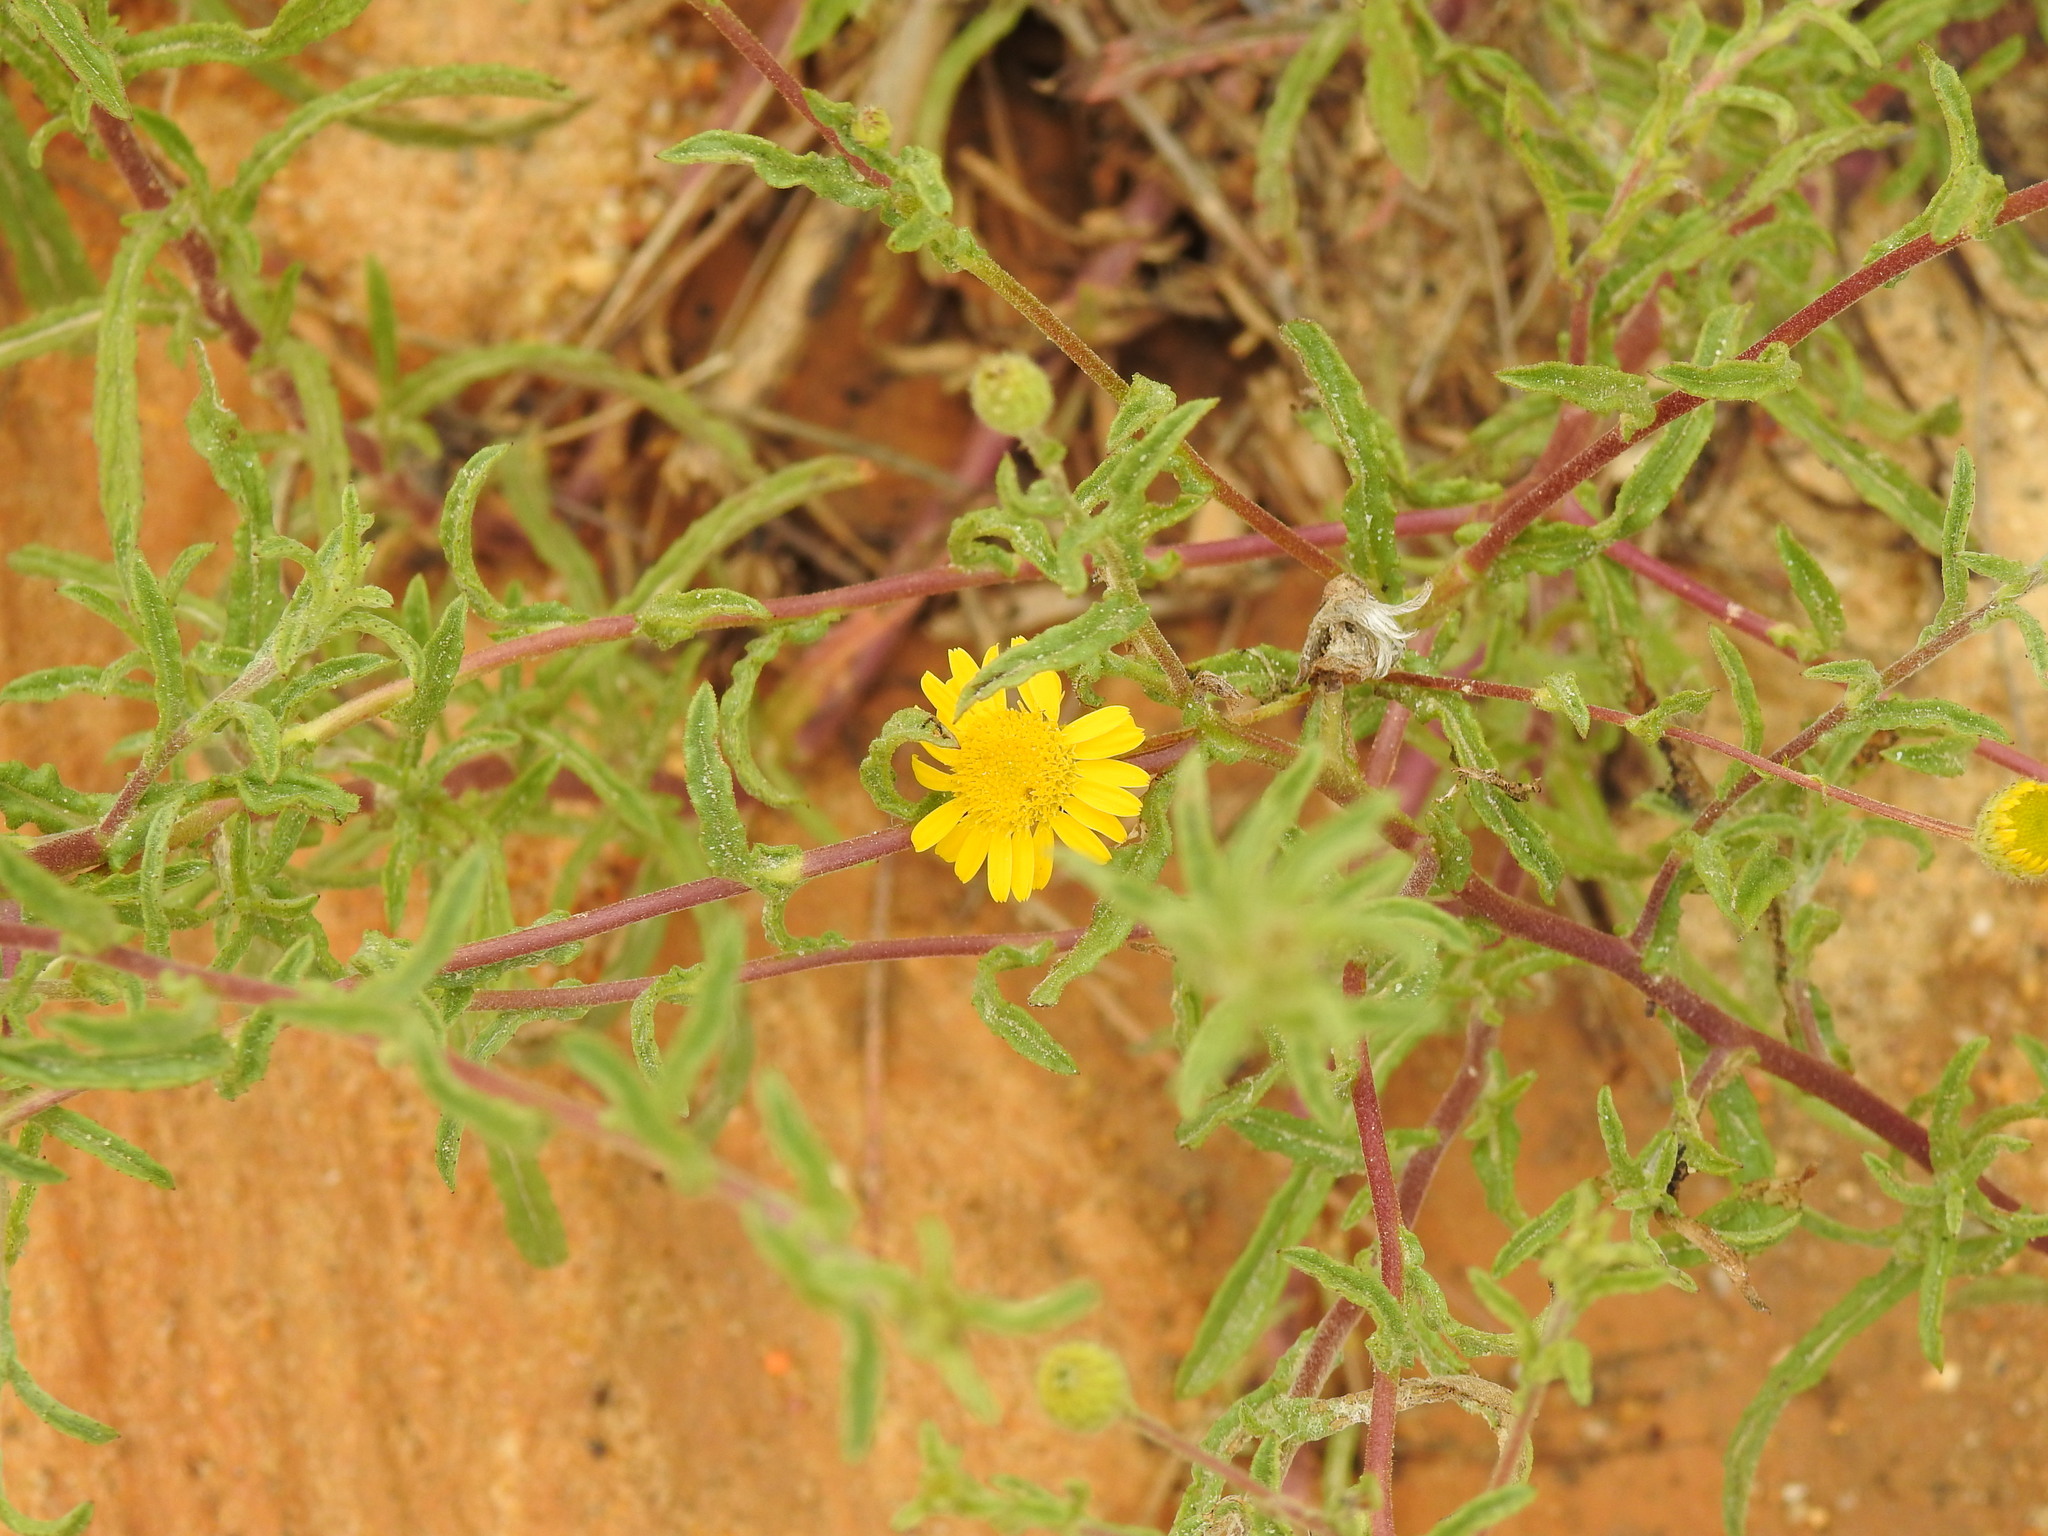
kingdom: Plantae
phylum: Tracheophyta
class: Magnoliopsida
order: Asterales
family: Asteraceae
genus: Pulicaria
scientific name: Pulicaria paludosa
